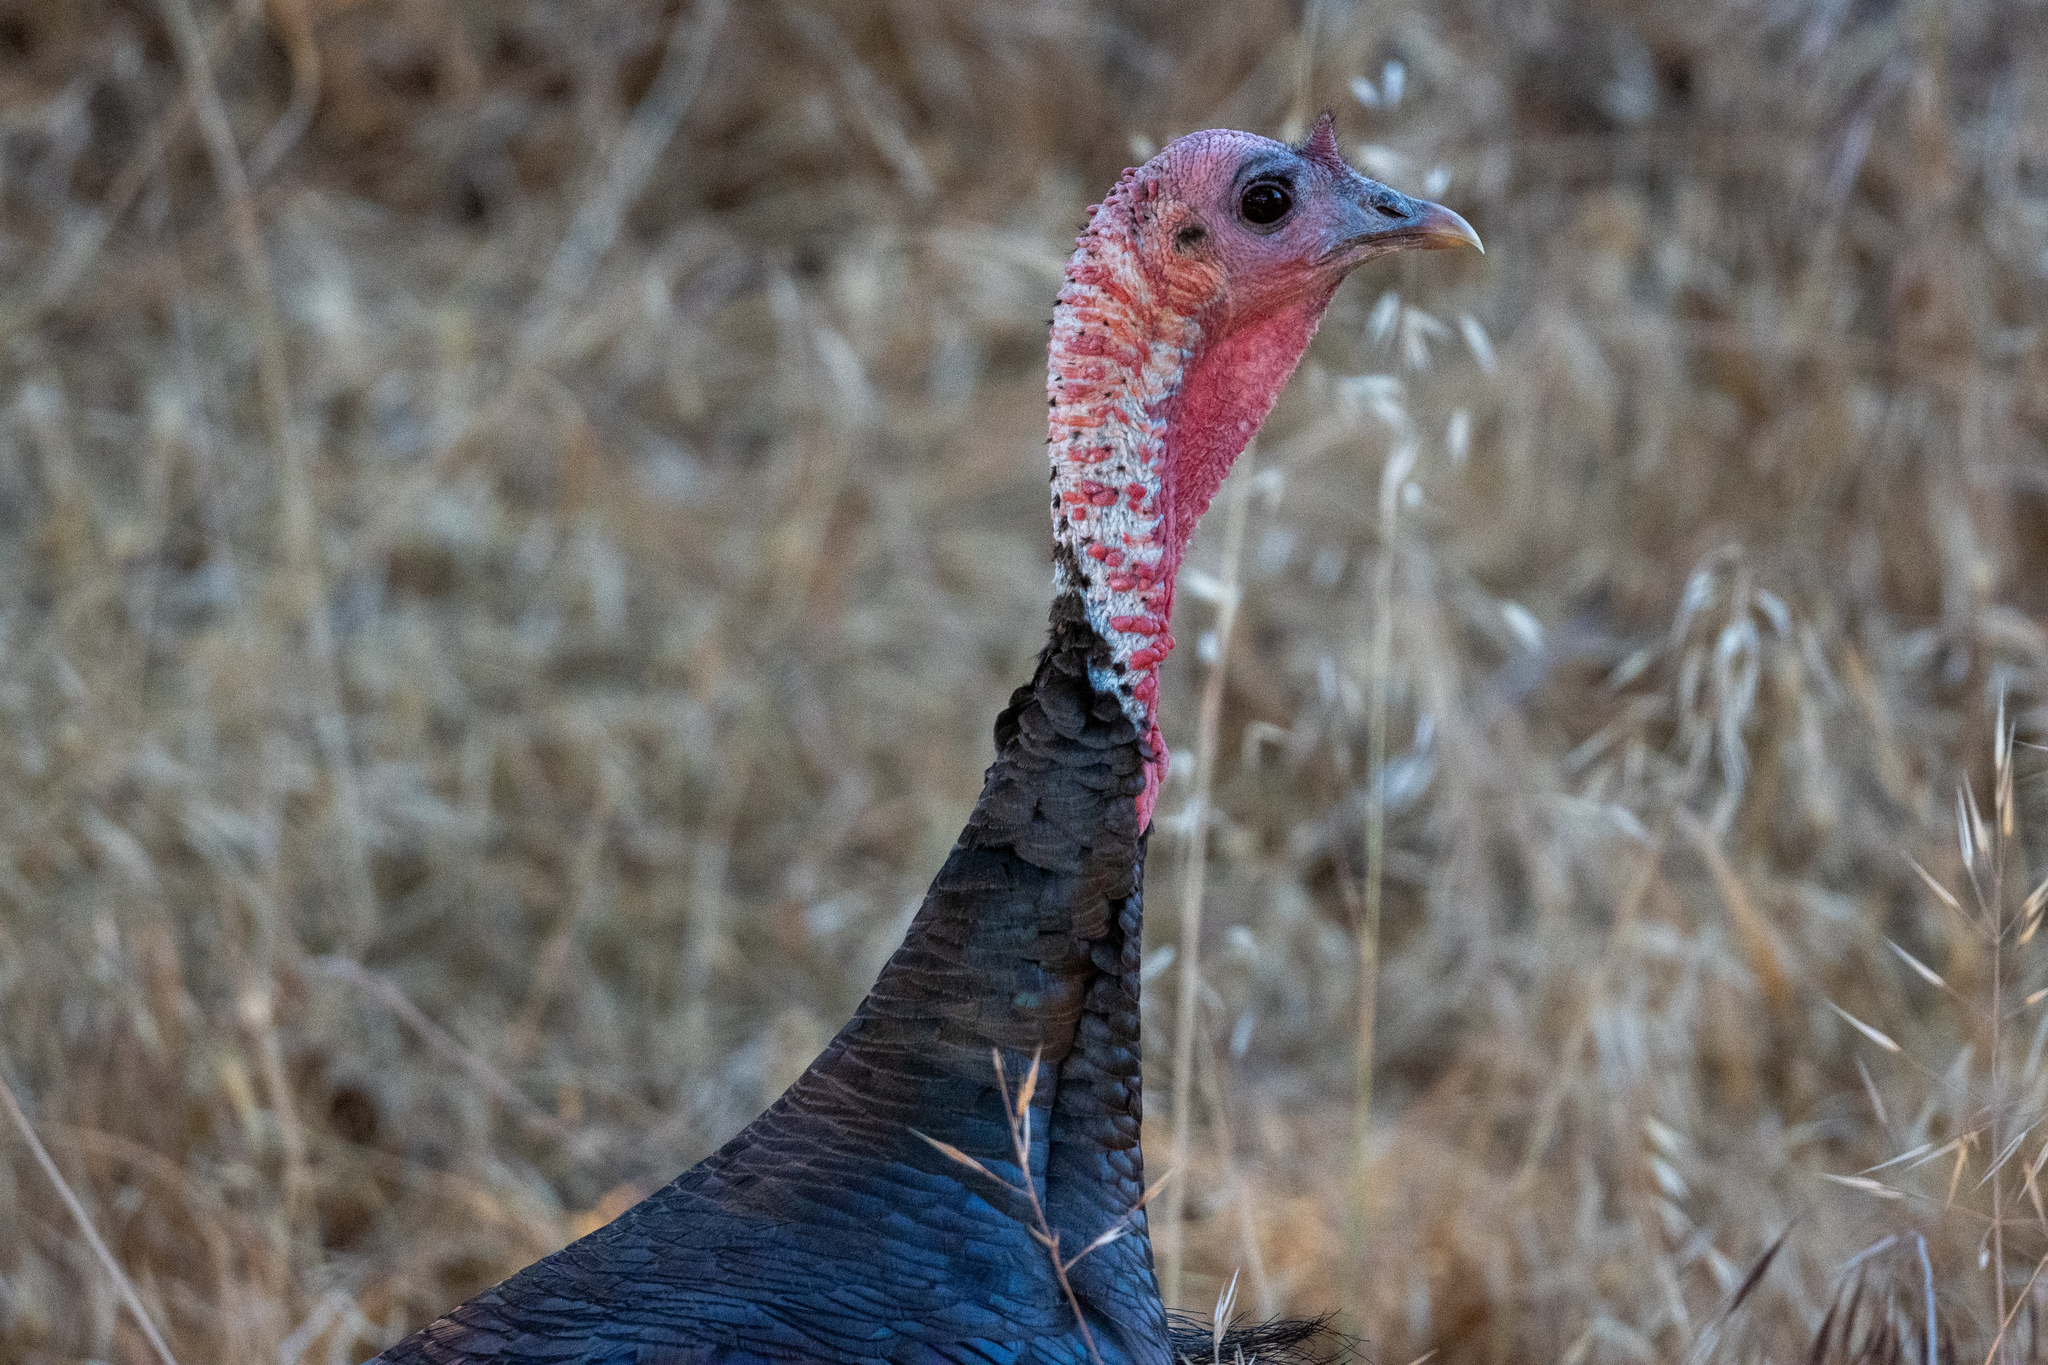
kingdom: Animalia
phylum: Chordata
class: Aves
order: Galliformes
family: Phasianidae
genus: Meleagris
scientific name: Meleagris gallopavo
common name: Wild turkey
